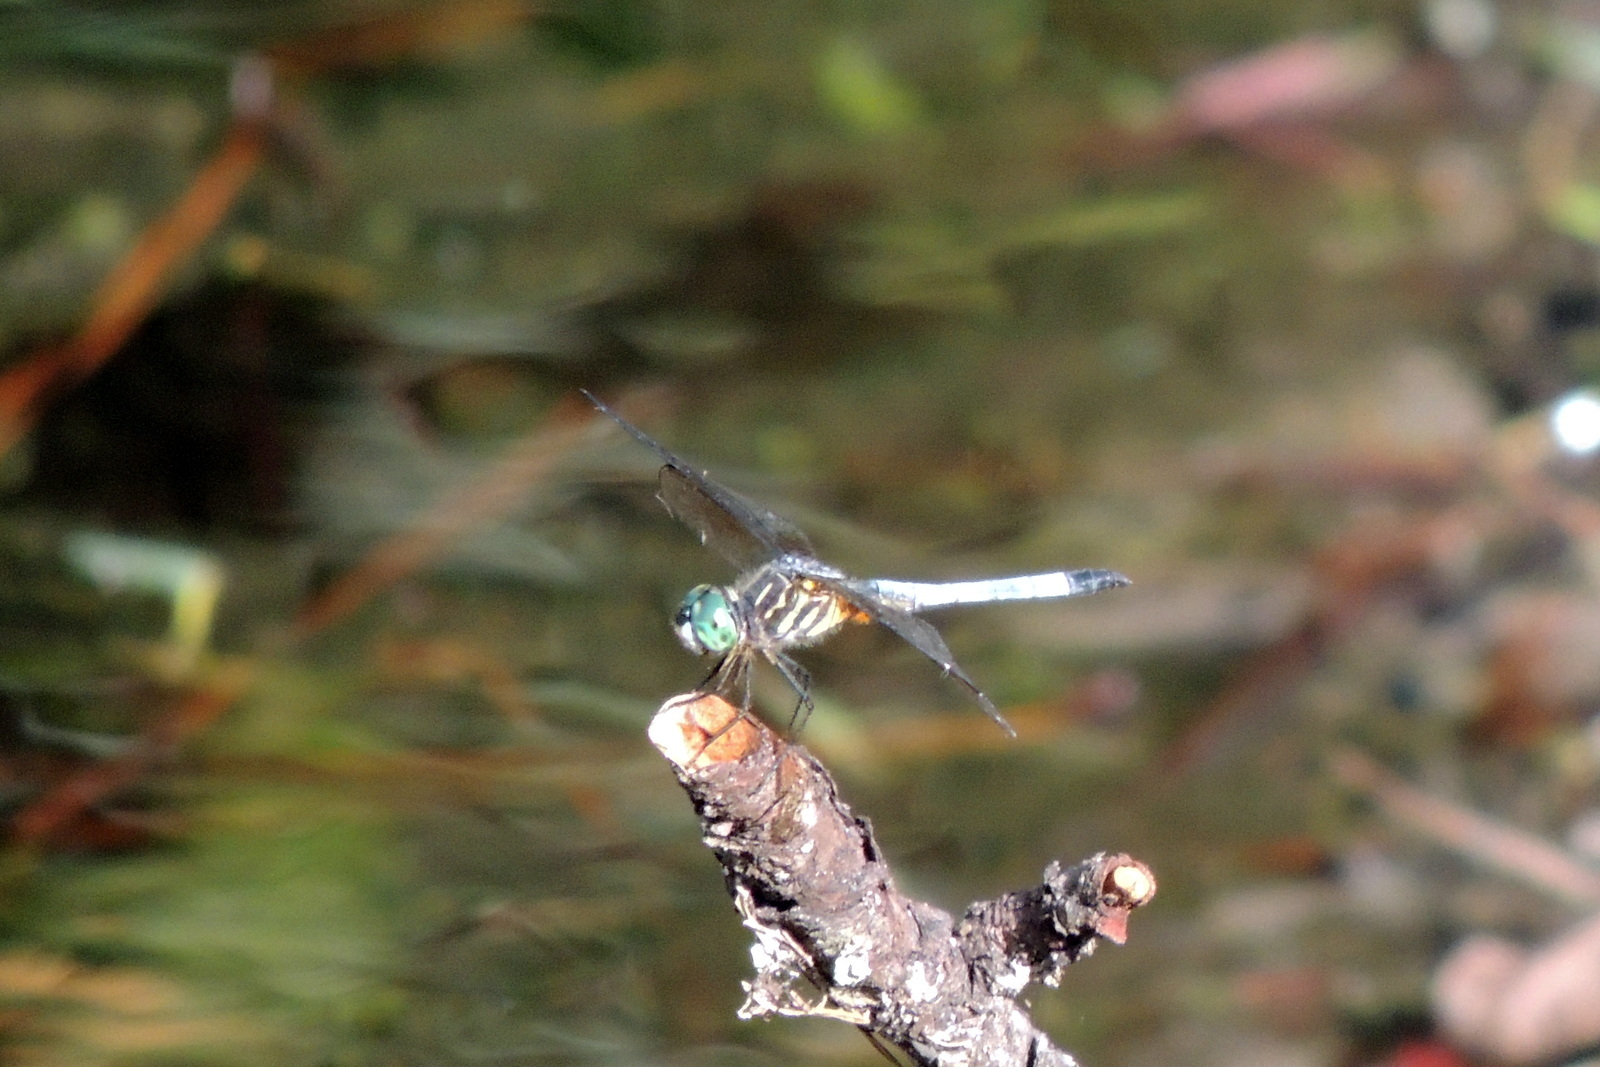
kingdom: Animalia
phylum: Arthropoda
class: Insecta
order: Odonata
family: Libellulidae
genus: Pachydiplax
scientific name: Pachydiplax longipennis
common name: Blue dasher
